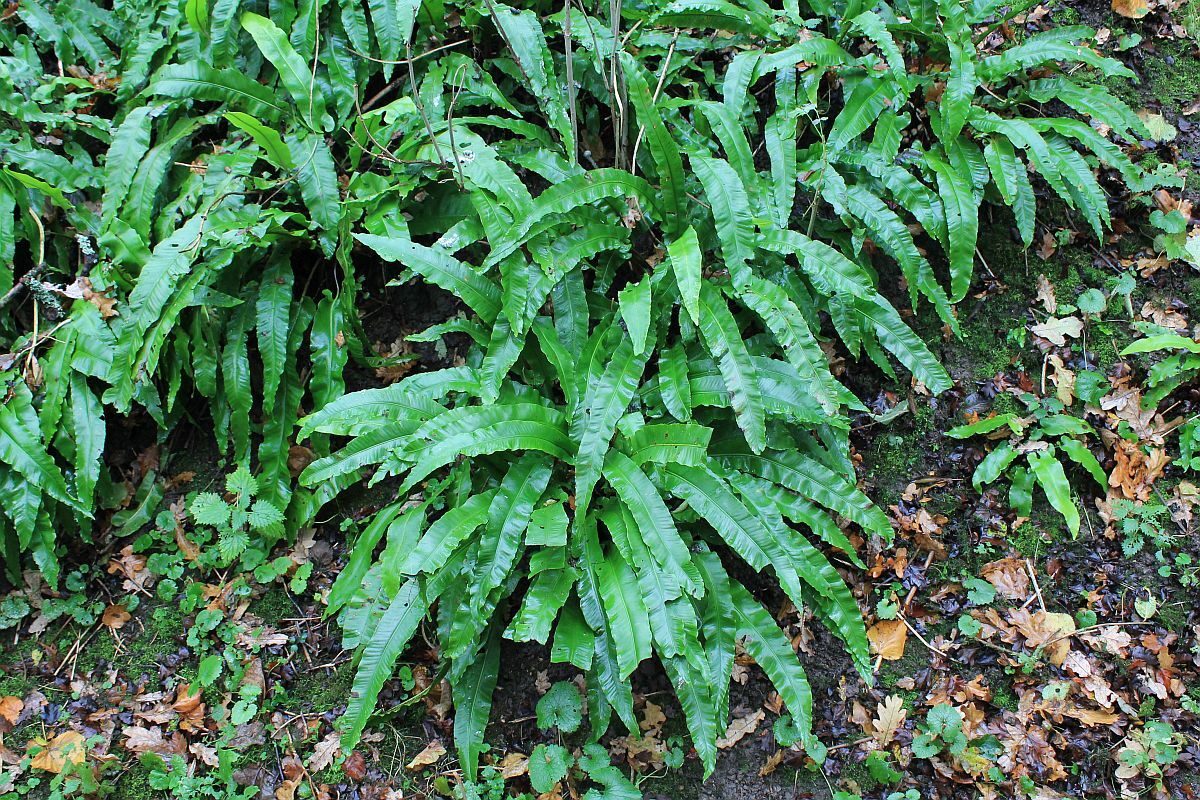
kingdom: Plantae
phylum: Tracheophyta
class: Polypodiopsida
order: Polypodiales
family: Aspleniaceae
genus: Asplenium
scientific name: Asplenium scolopendrium
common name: Hart's-tongue fern
